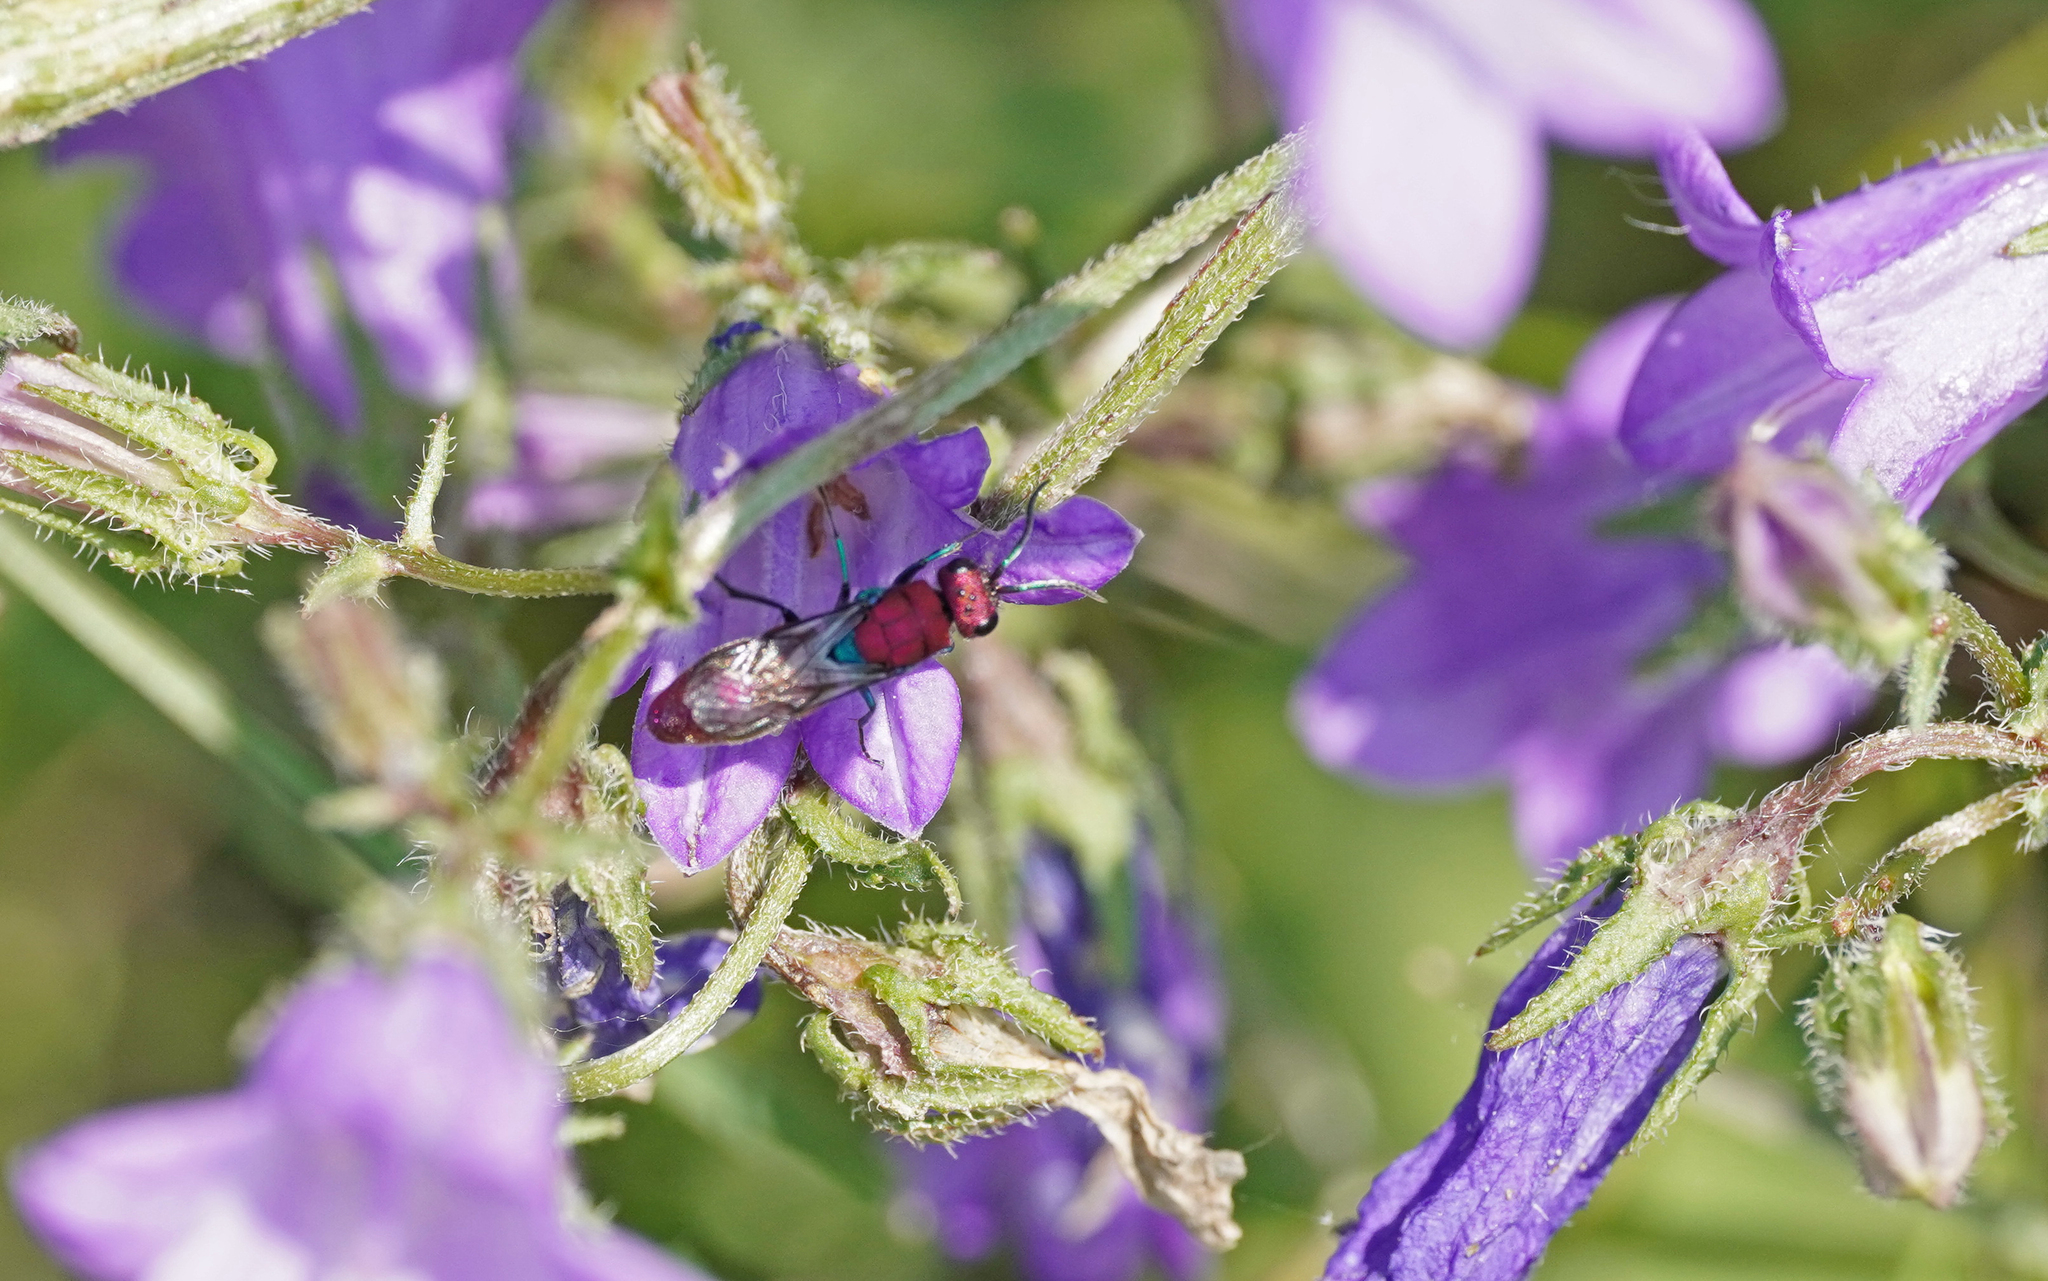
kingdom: Animalia
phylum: Arthropoda
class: Insecta
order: Hymenoptera
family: Chrysididae
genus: Chrysura
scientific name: Chrysura cuprea
